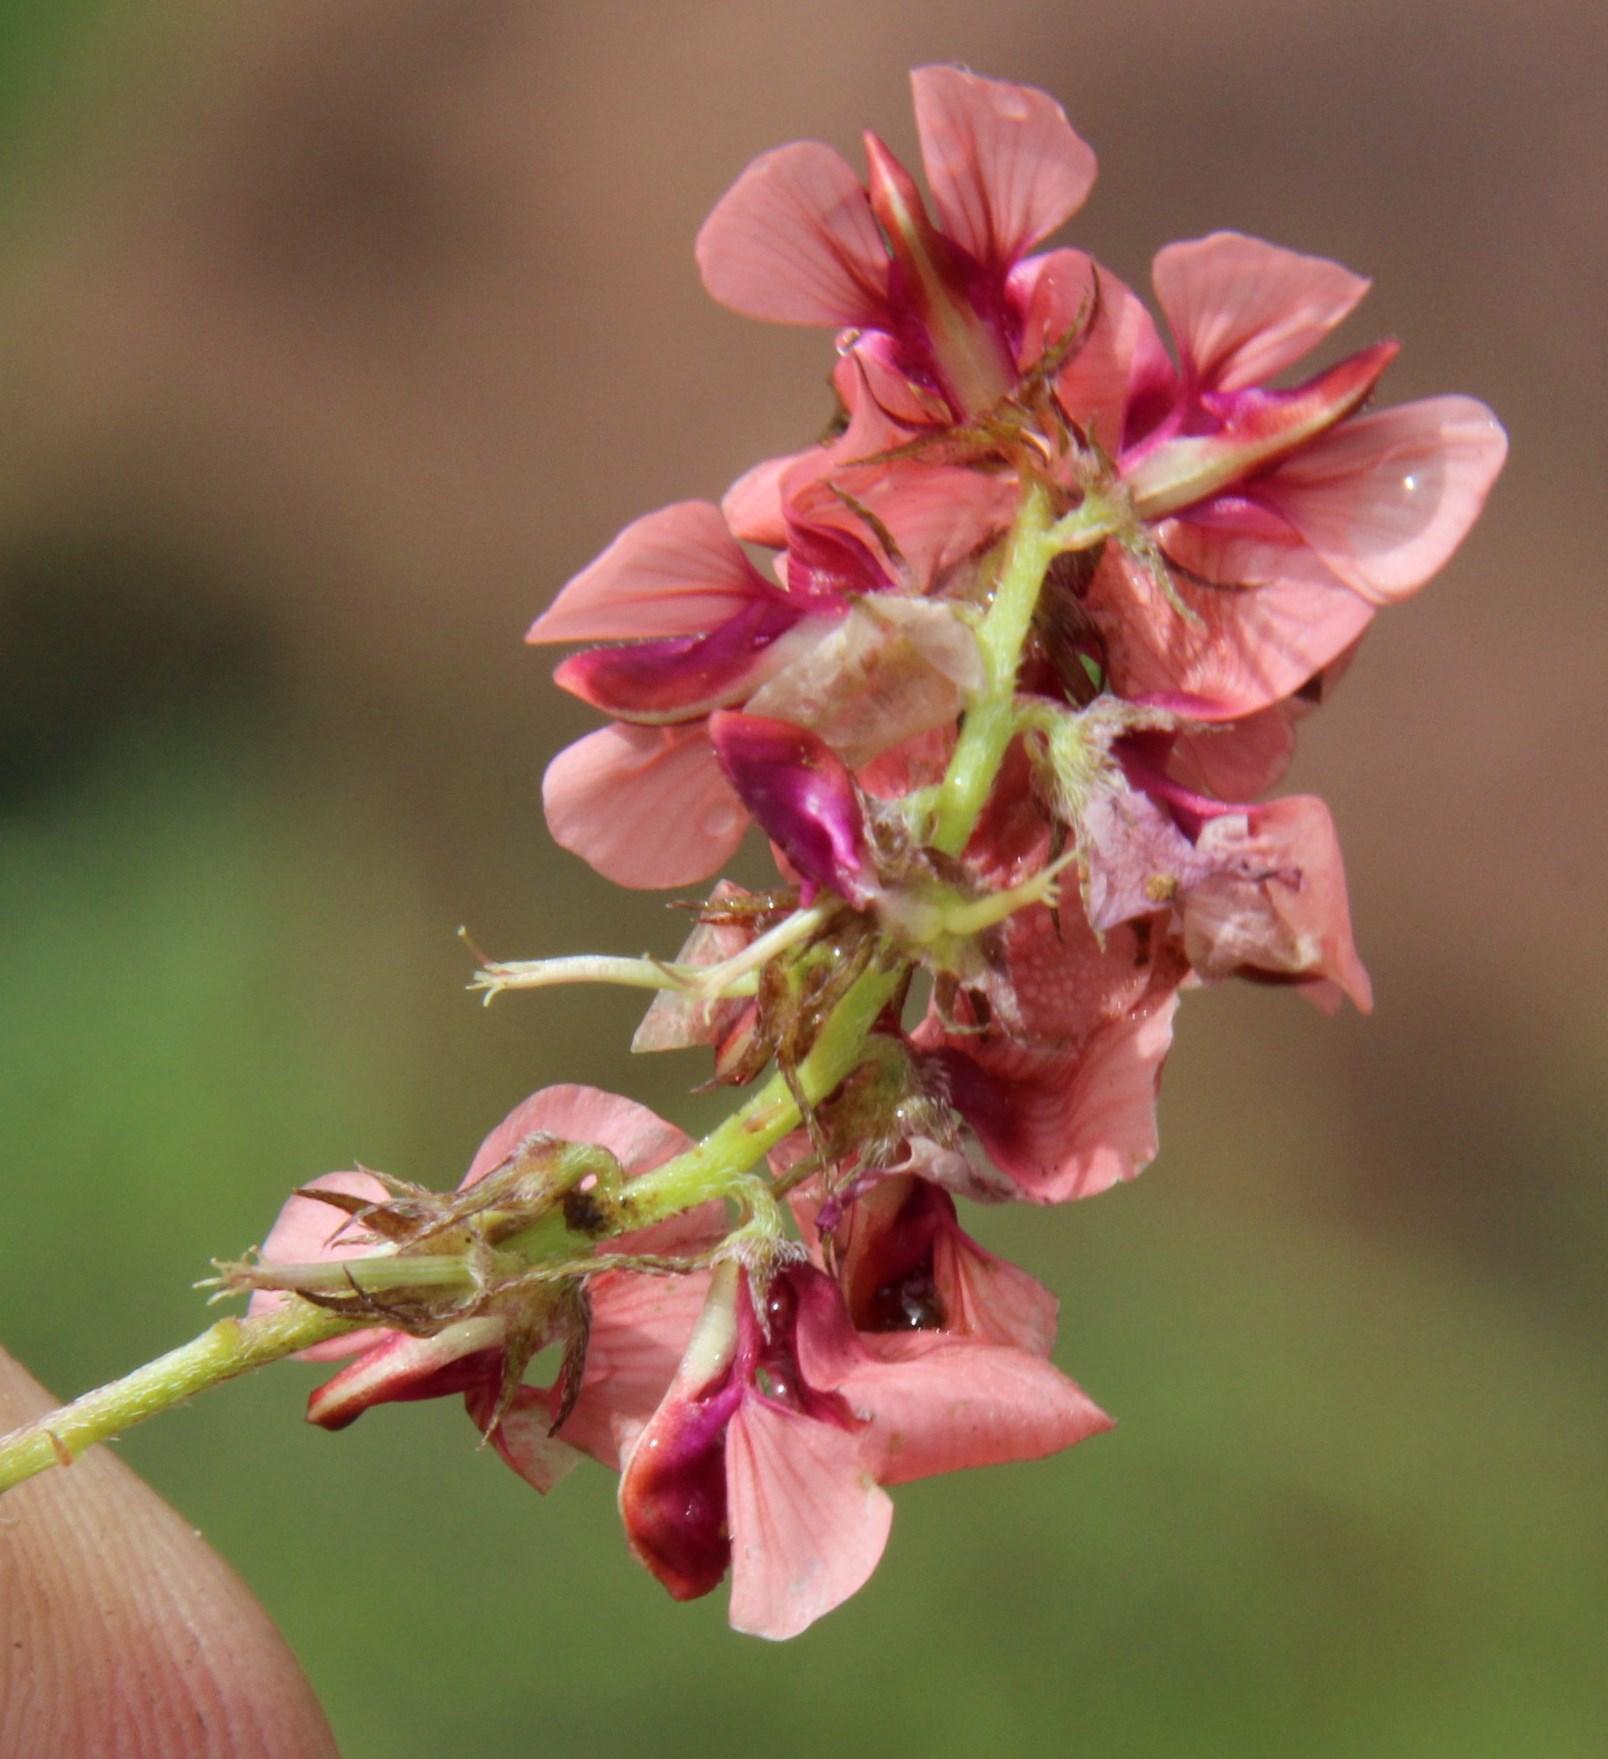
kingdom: Plantae
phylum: Tracheophyta
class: Magnoliopsida
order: Fabales
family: Fabaceae
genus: Indigofera
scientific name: Indigofera alternans
